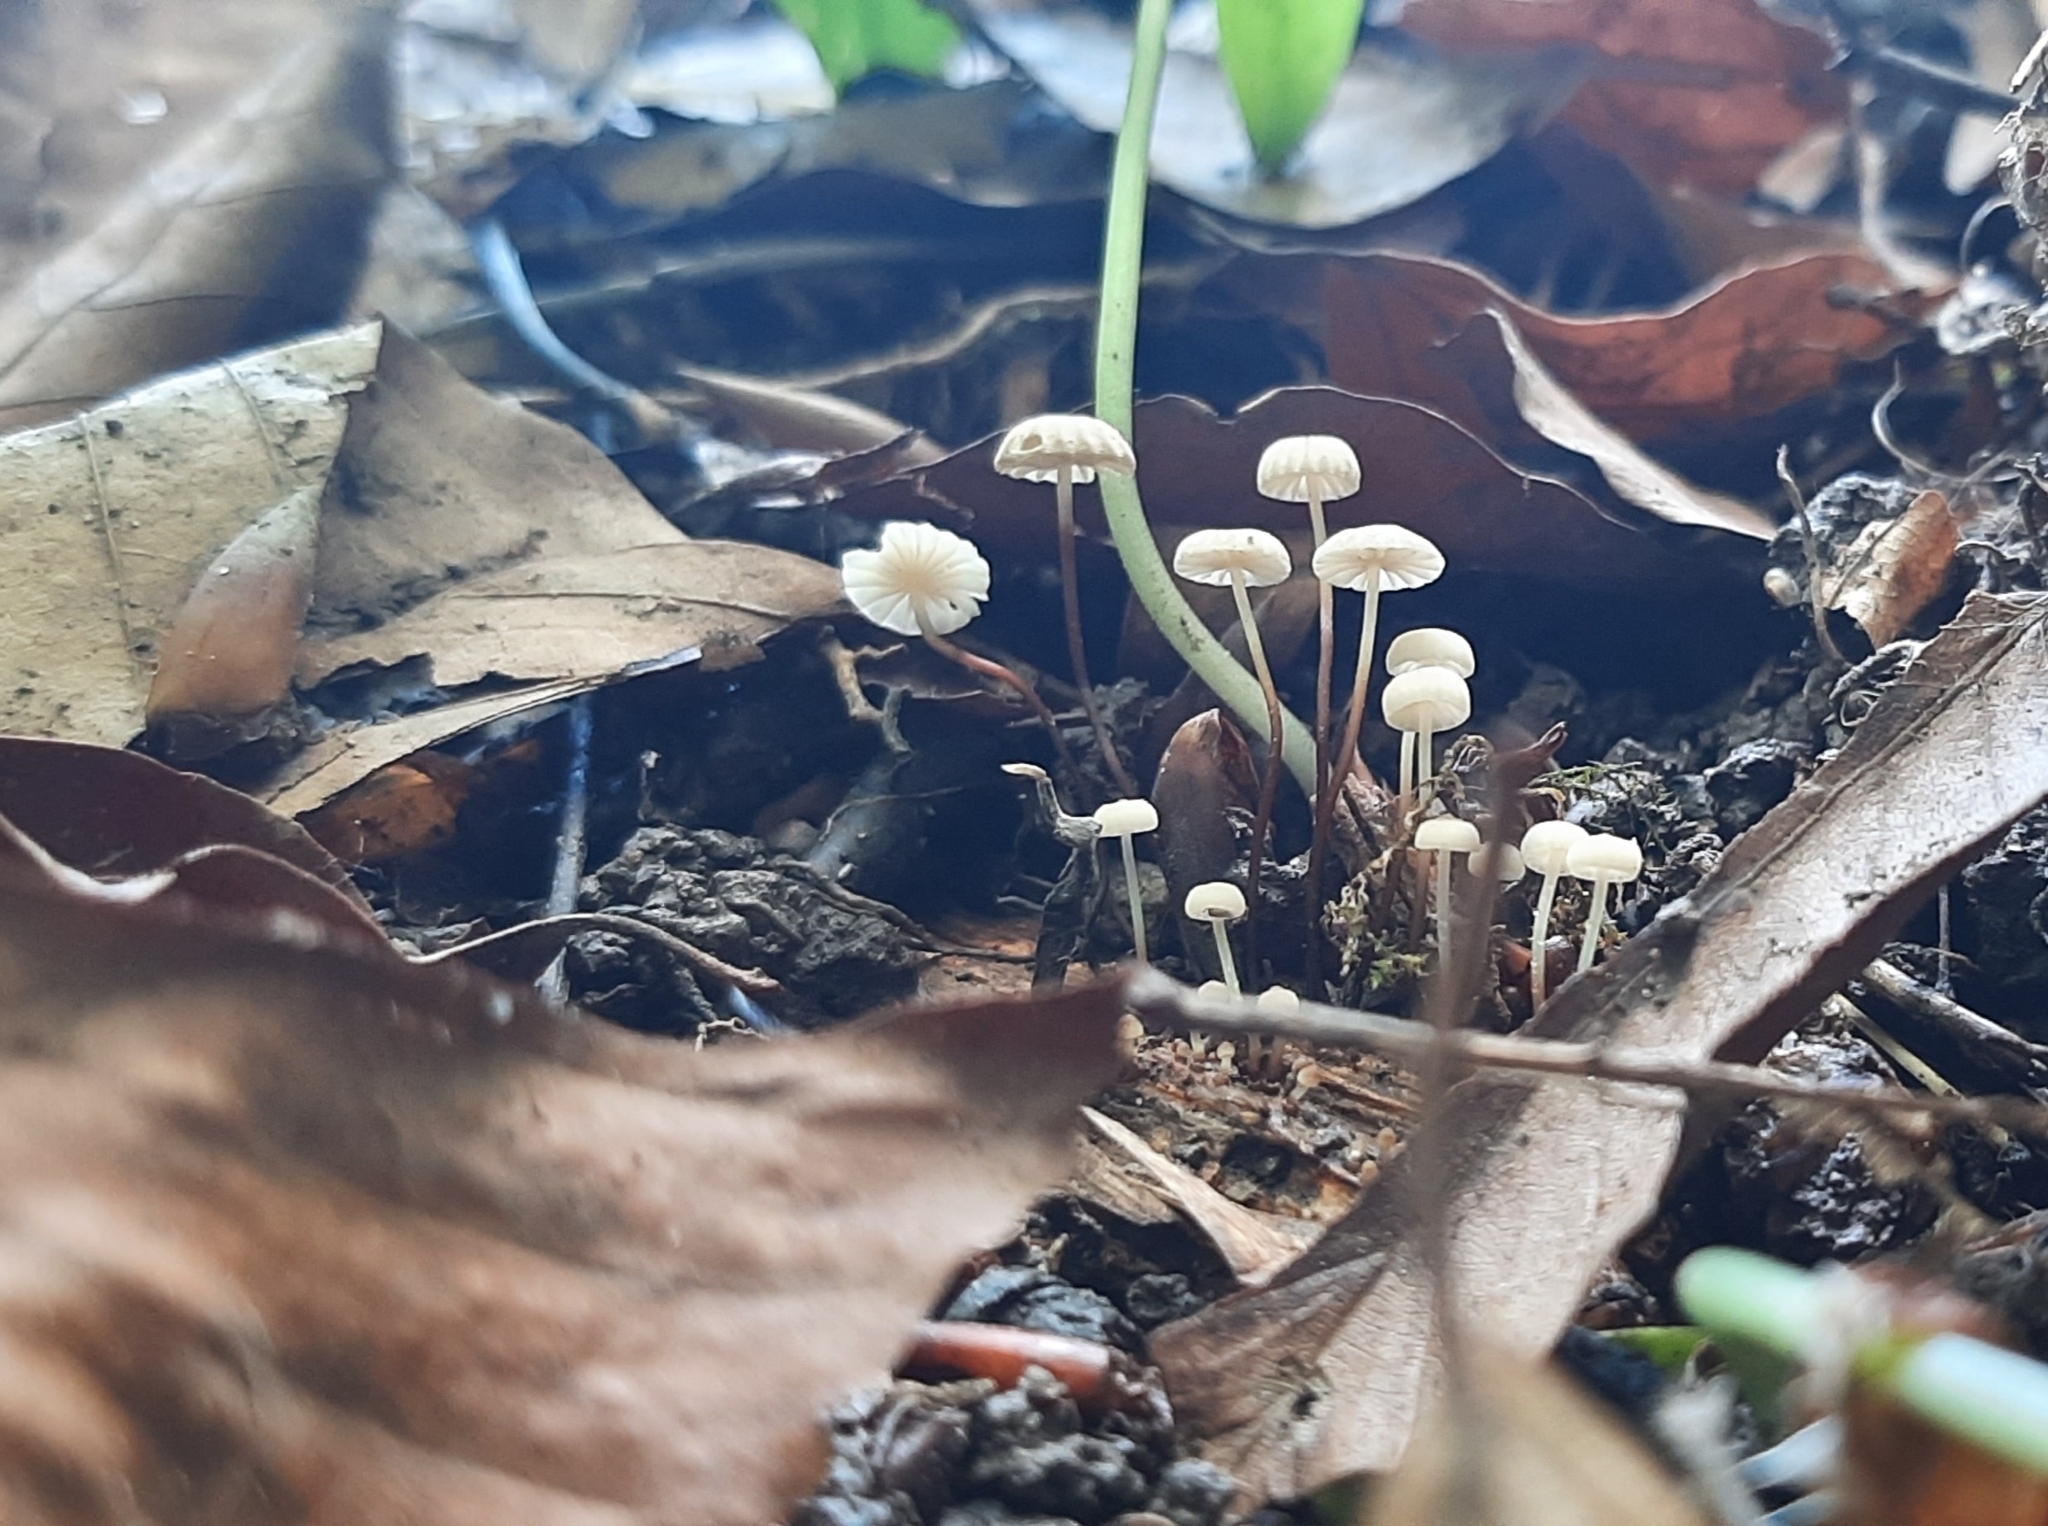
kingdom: Fungi
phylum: Basidiomycota
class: Agaricomycetes
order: Agaricales
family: Marasmiaceae
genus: Marasmius
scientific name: Marasmius rotula
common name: Collared parachute
